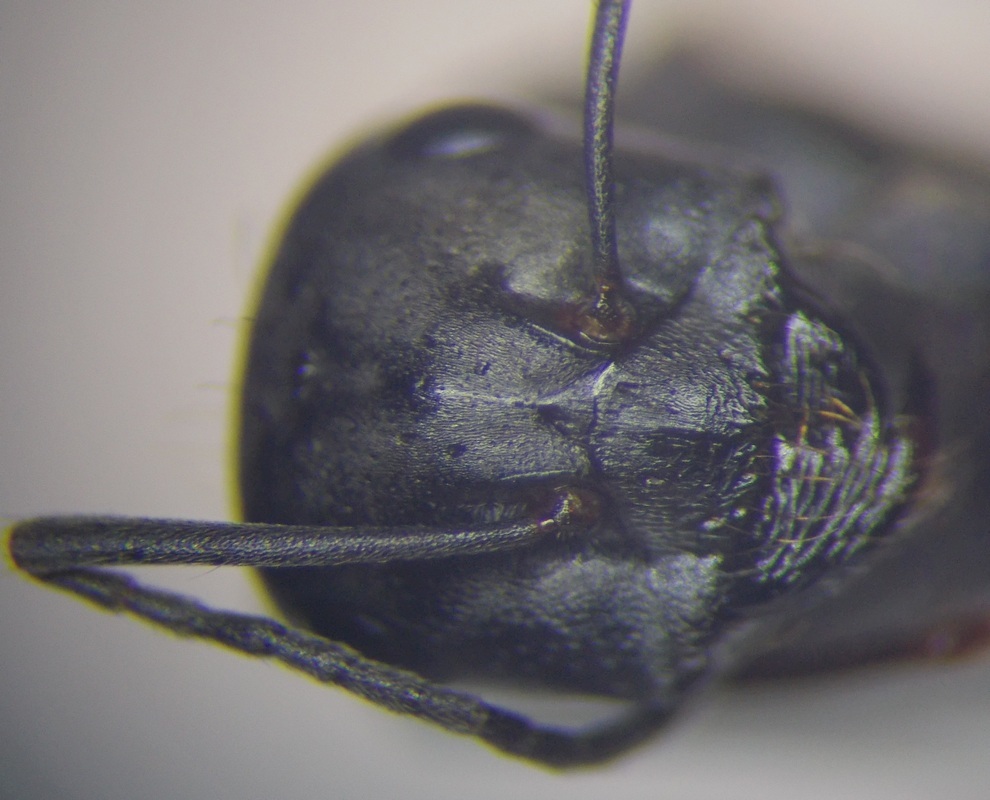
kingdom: Animalia
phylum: Arthropoda
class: Insecta
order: Hymenoptera
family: Formicidae
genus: Cataglyphis
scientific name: Cataglyphis aenescens
